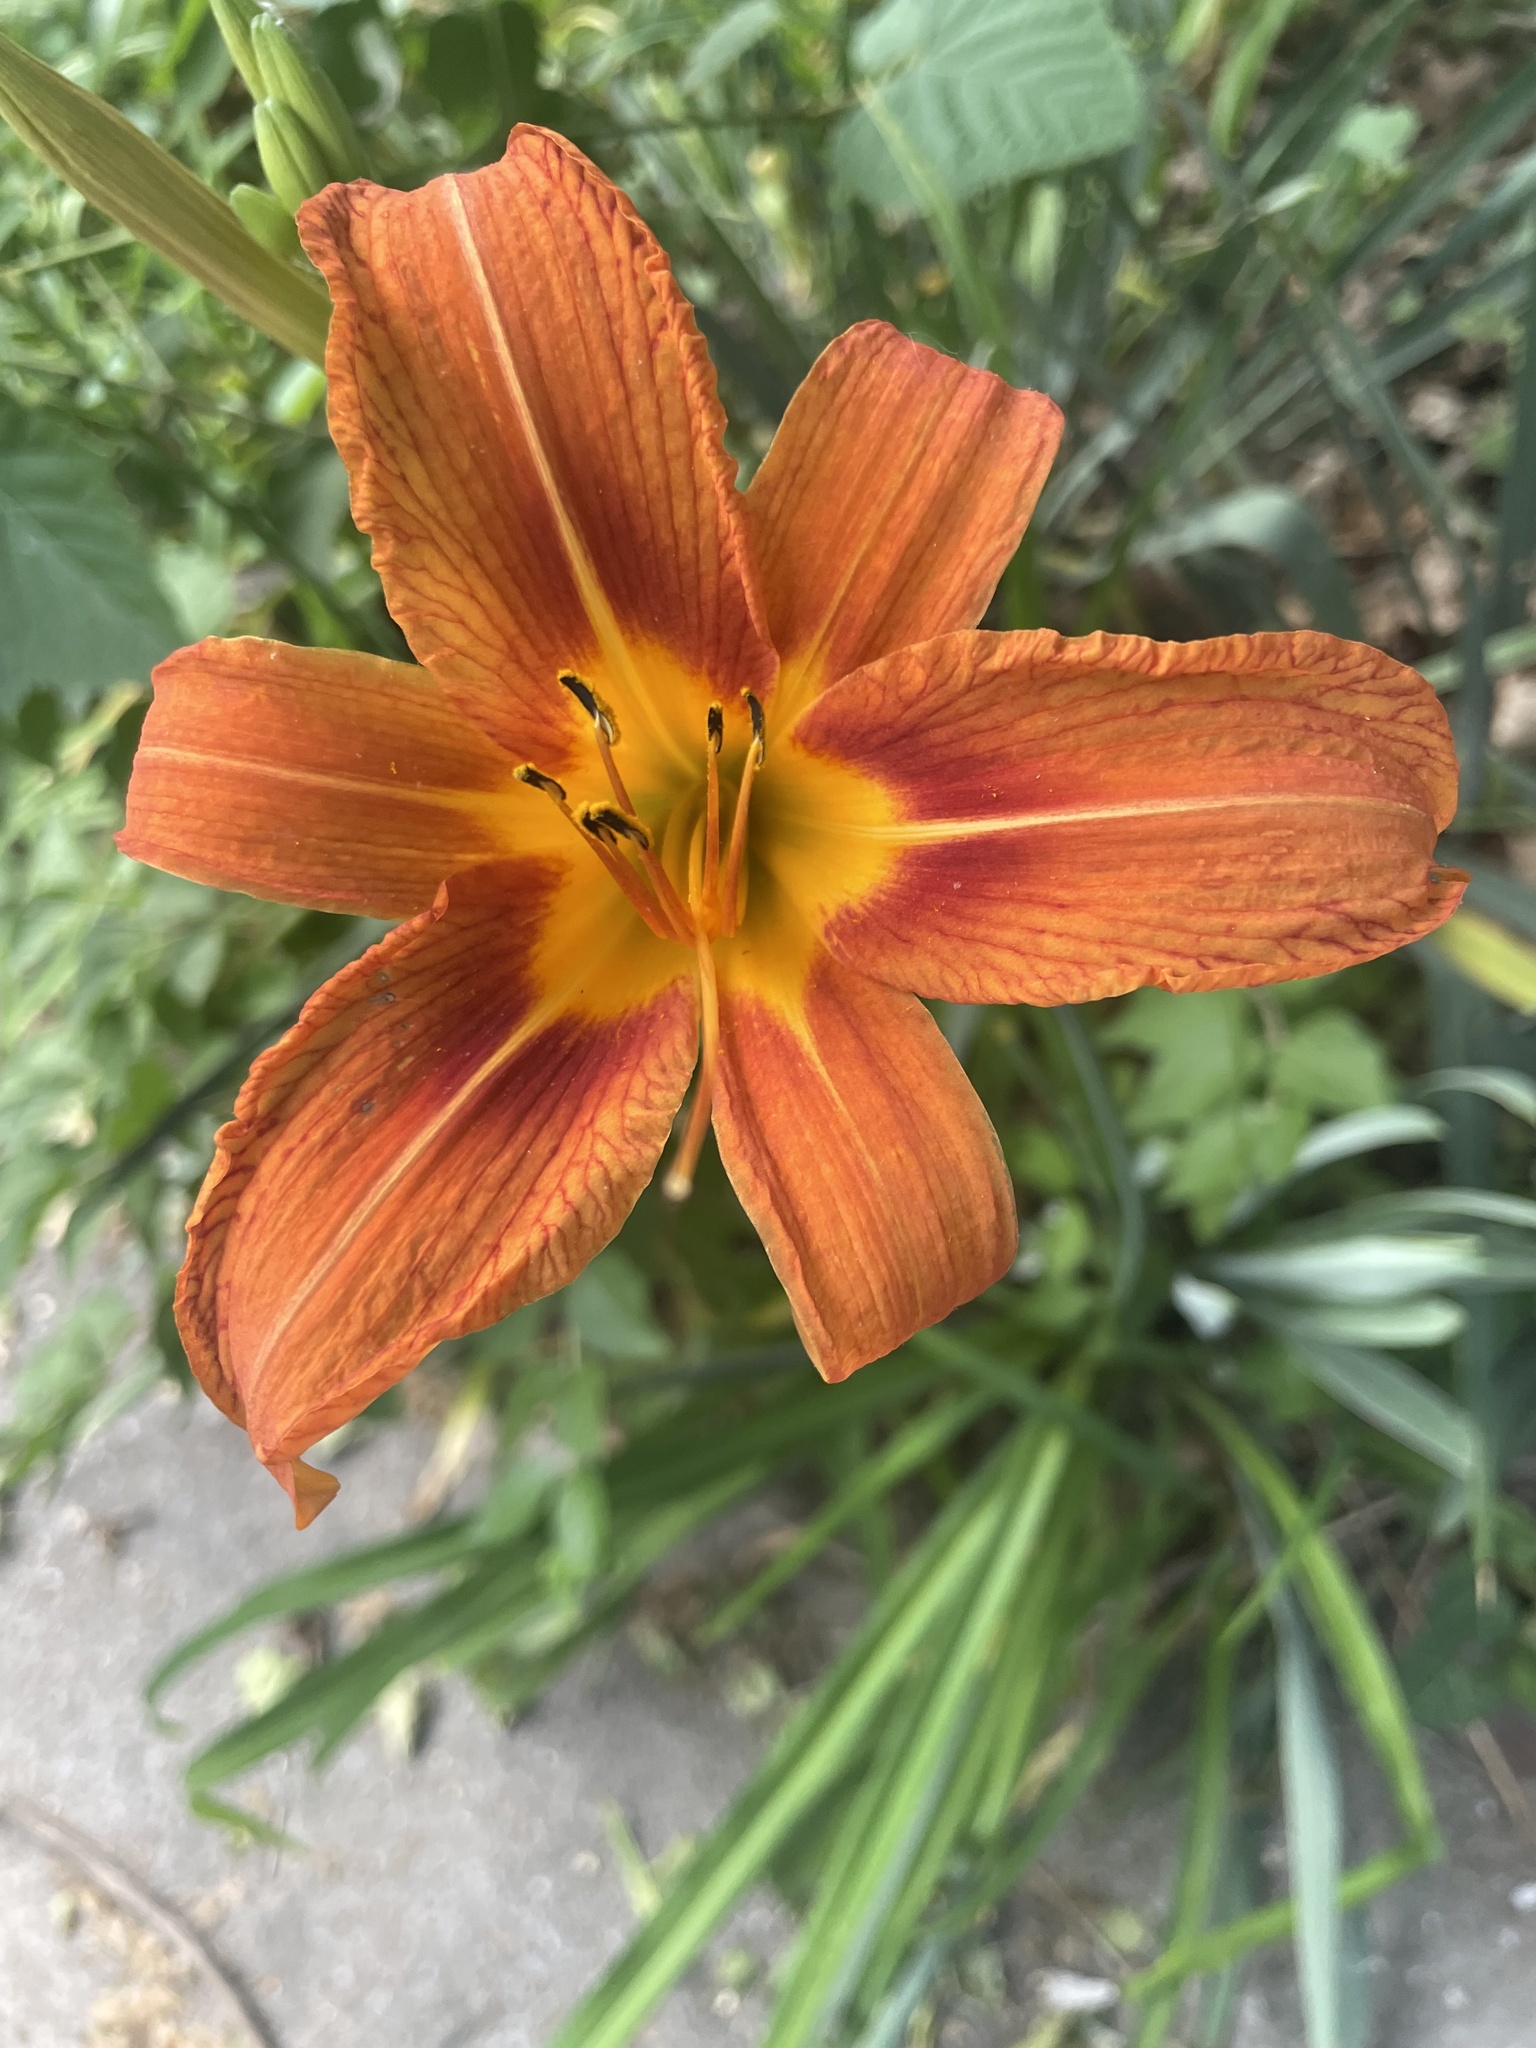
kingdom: Plantae
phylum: Tracheophyta
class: Liliopsida
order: Asparagales
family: Asphodelaceae
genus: Hemerocallis
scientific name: Hemerocallis fulva
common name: Orange day-lily
